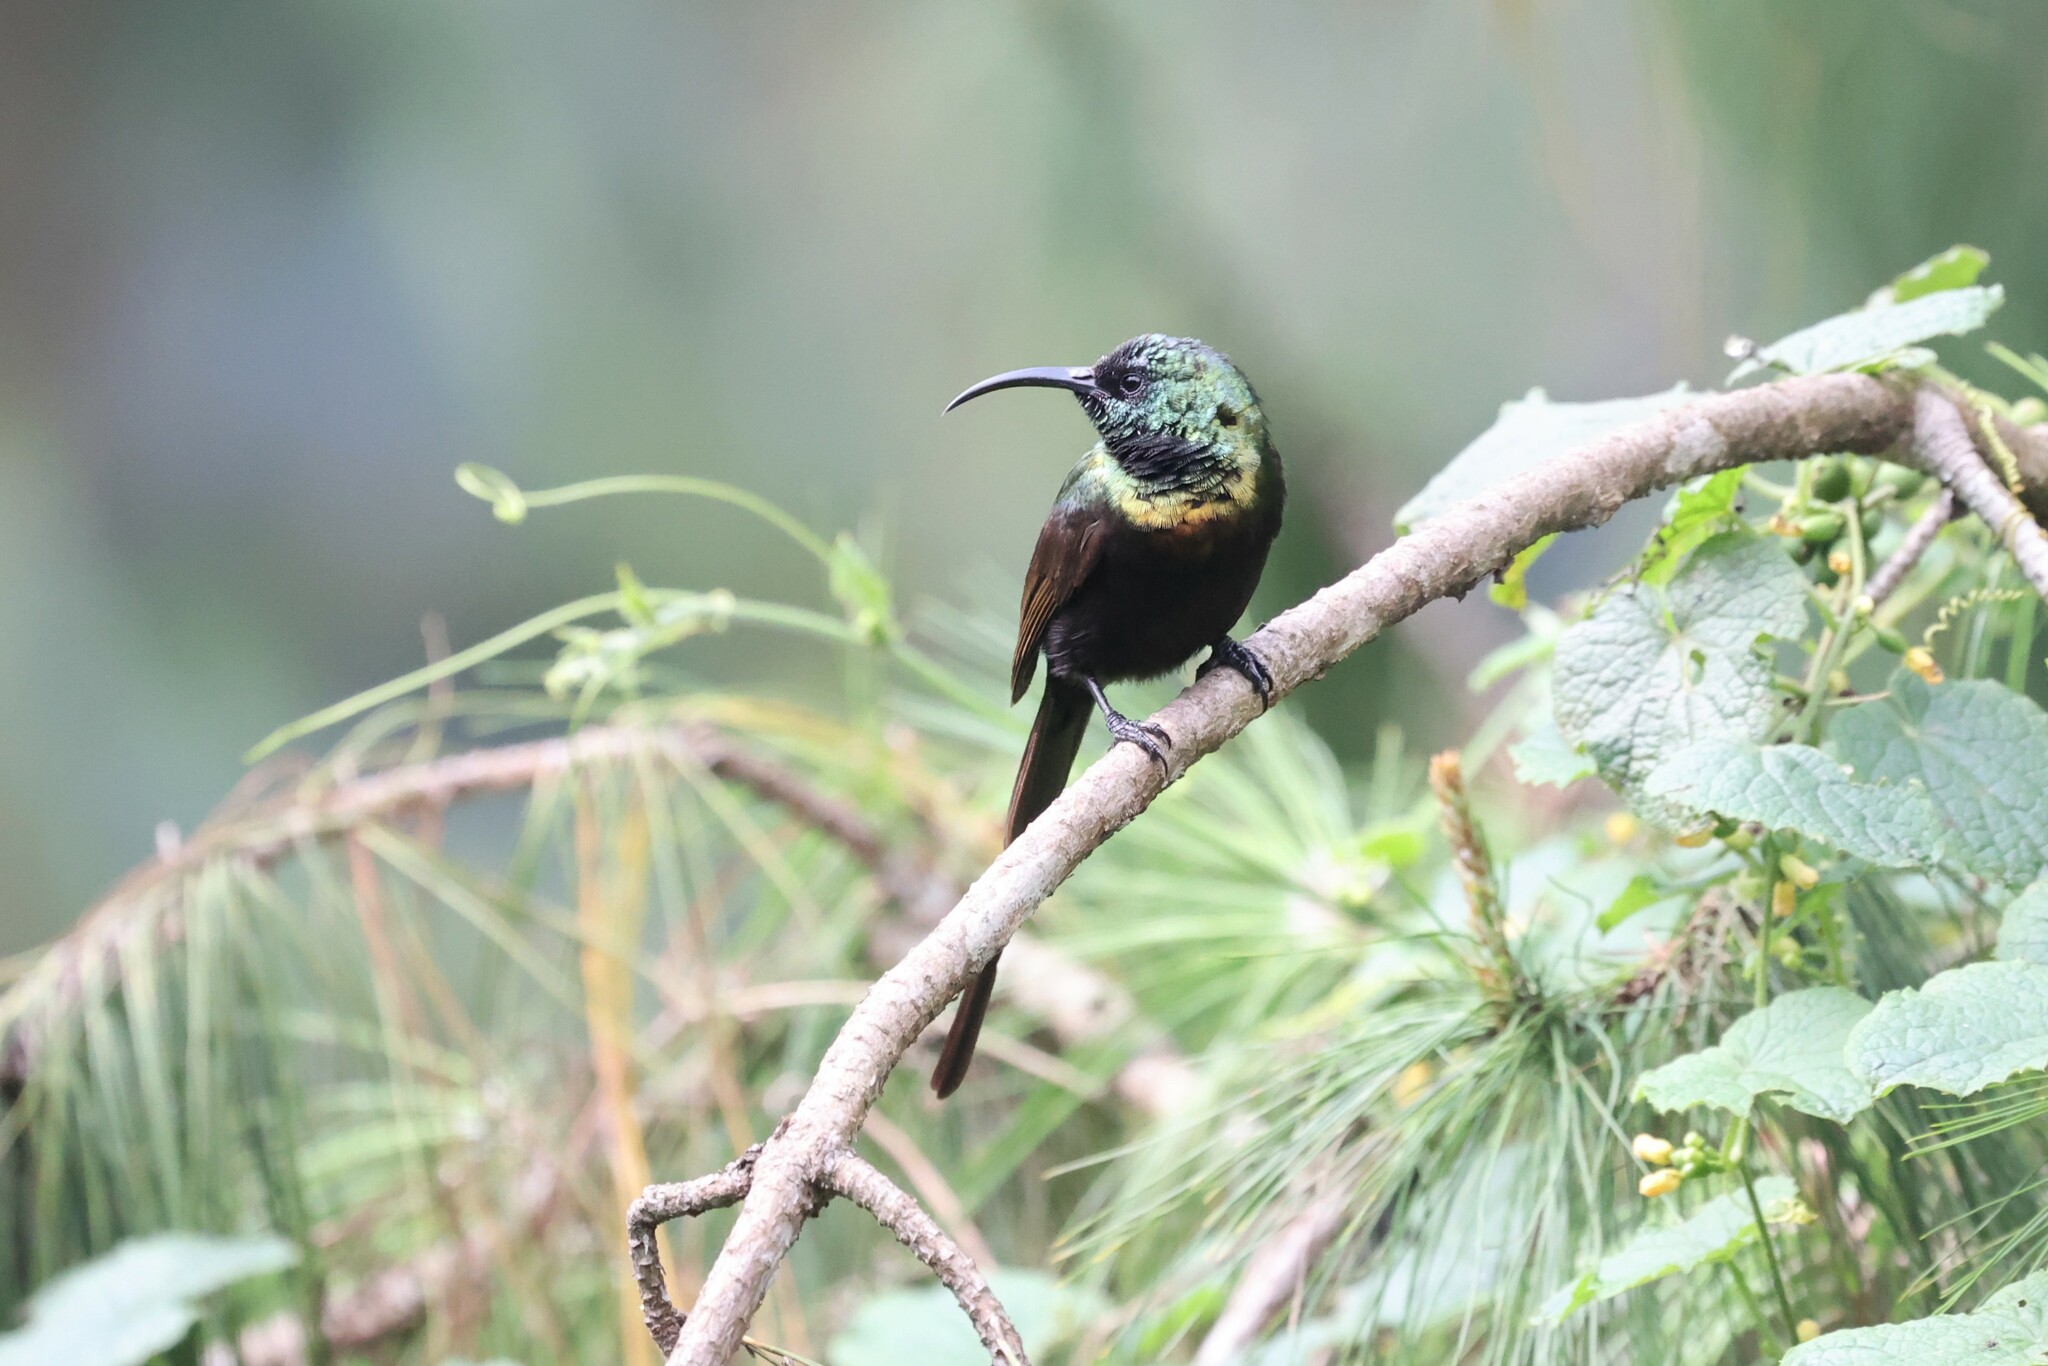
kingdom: Animalia
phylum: Chordata
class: Aves
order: Passeriformes
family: Nectariniidae
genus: Nectarinia
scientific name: Nectarinia kilimensis
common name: Bronzy sunbird
